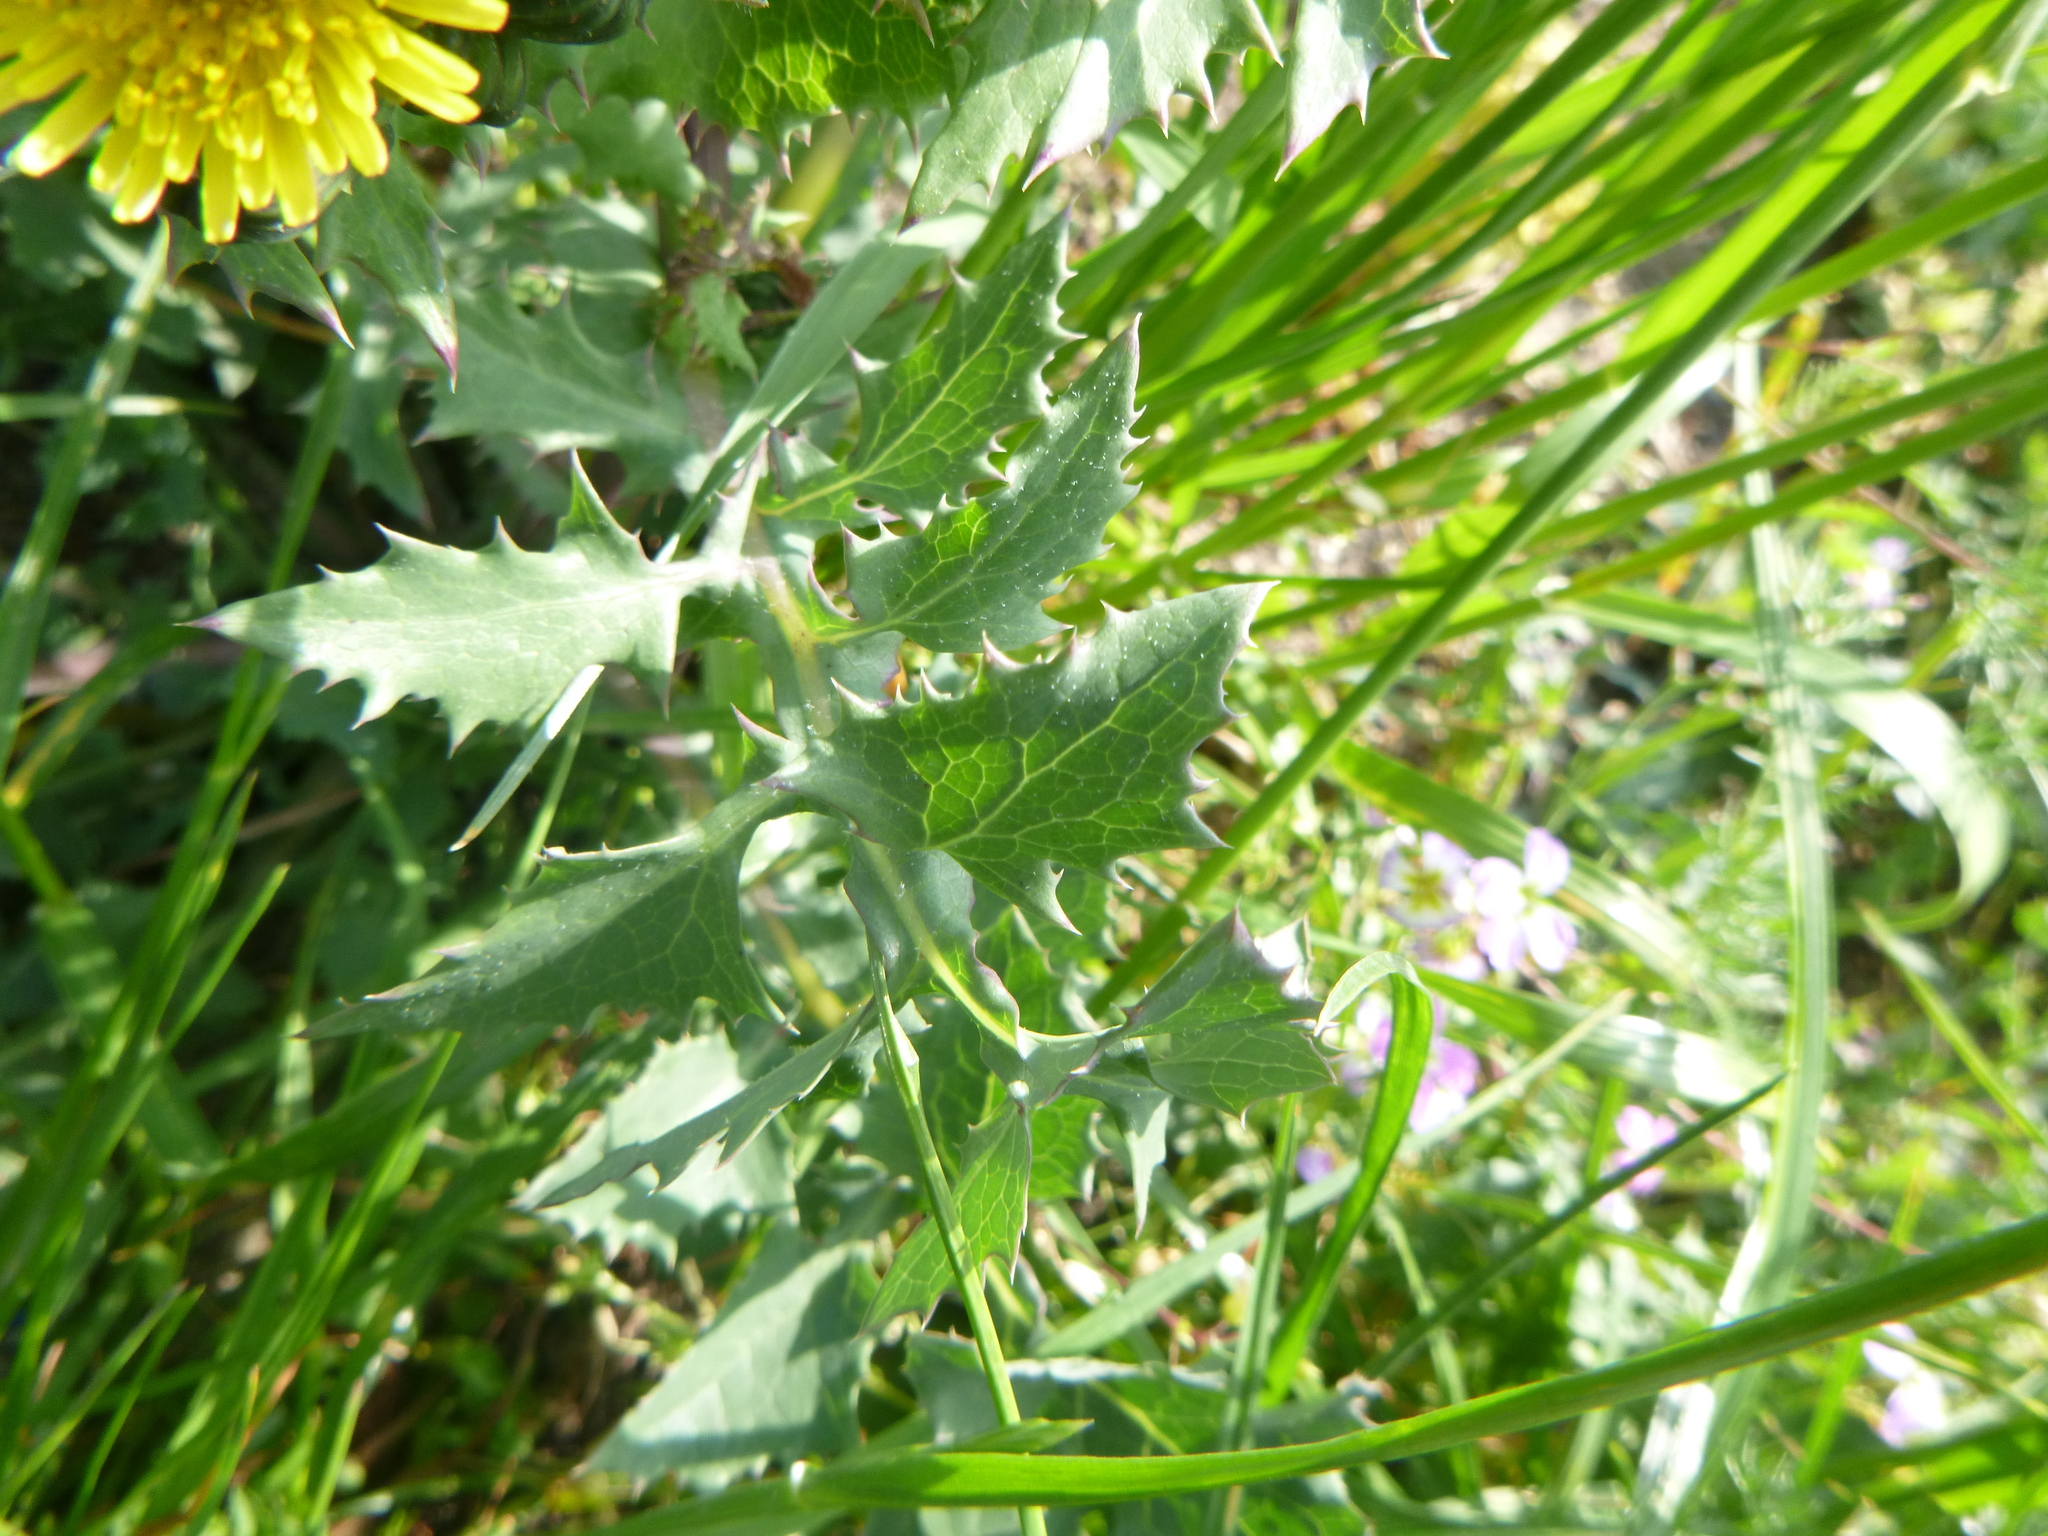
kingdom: Plantae
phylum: Tracheophyta
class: Magnoliopsida
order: Asterales
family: Asteraceae
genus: Sonchus
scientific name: Sonchus oleraceus
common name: Common sowthistle
